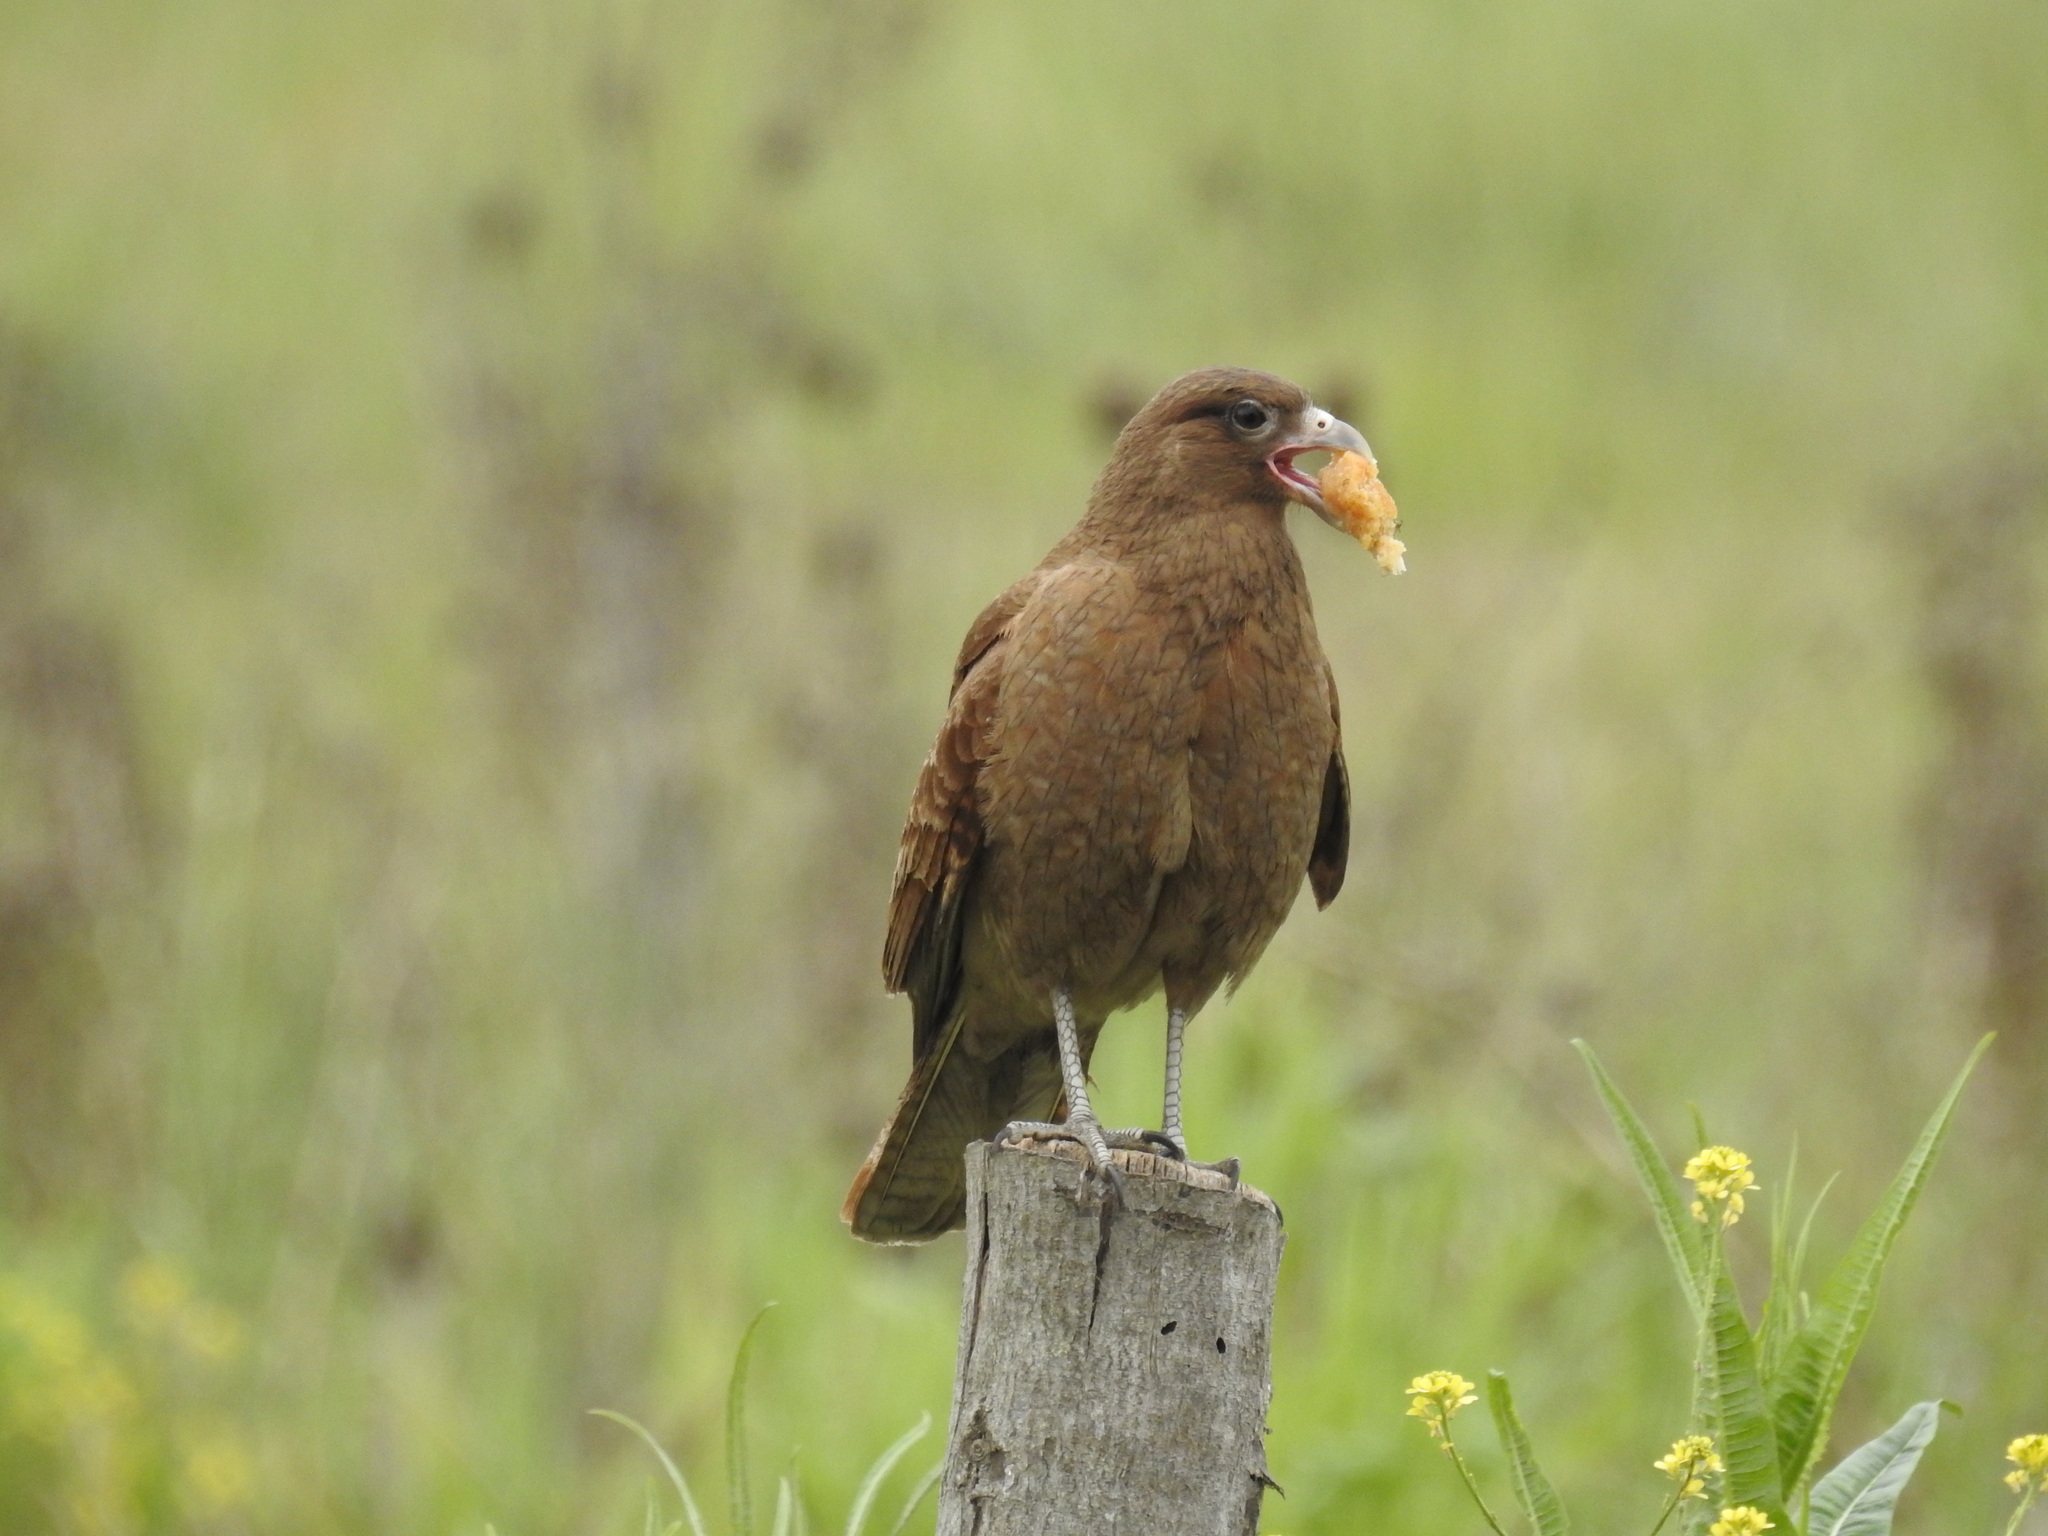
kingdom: Animalia
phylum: Chordata
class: Aves
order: Falconiformes
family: Falconidae
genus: Daptrius
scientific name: Daptrius
